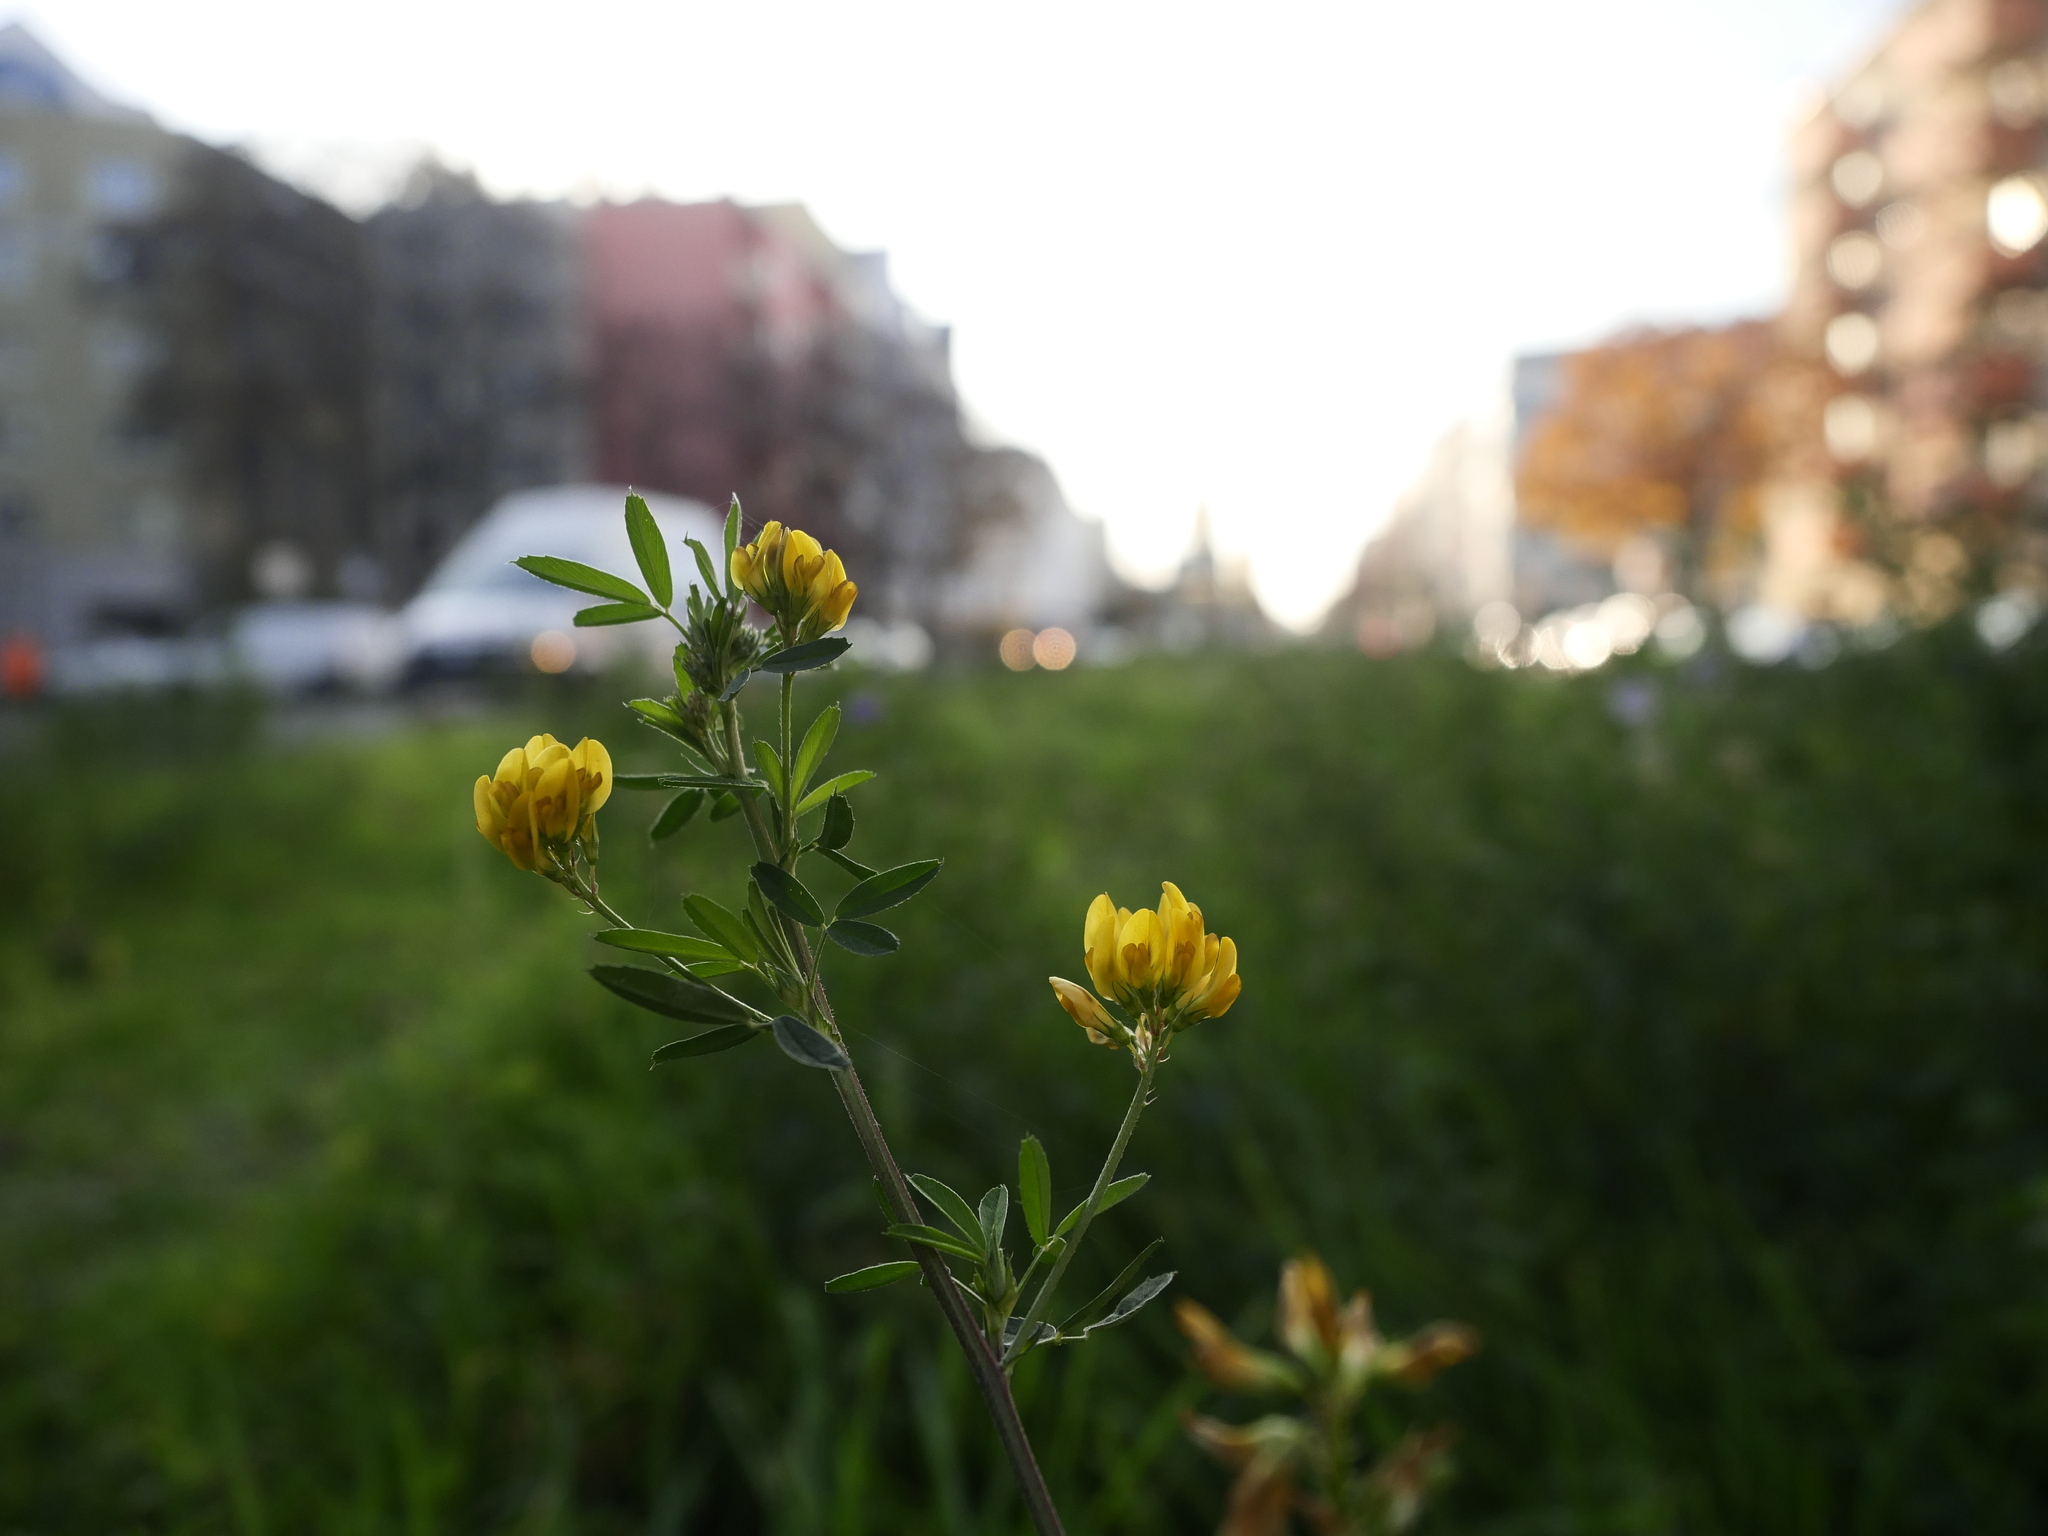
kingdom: Plantae
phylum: Tracheophyta
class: Magnoliopsida
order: Fabales
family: Fabaceae
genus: Medicago
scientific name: Medicago varia
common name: Sand lucerne
